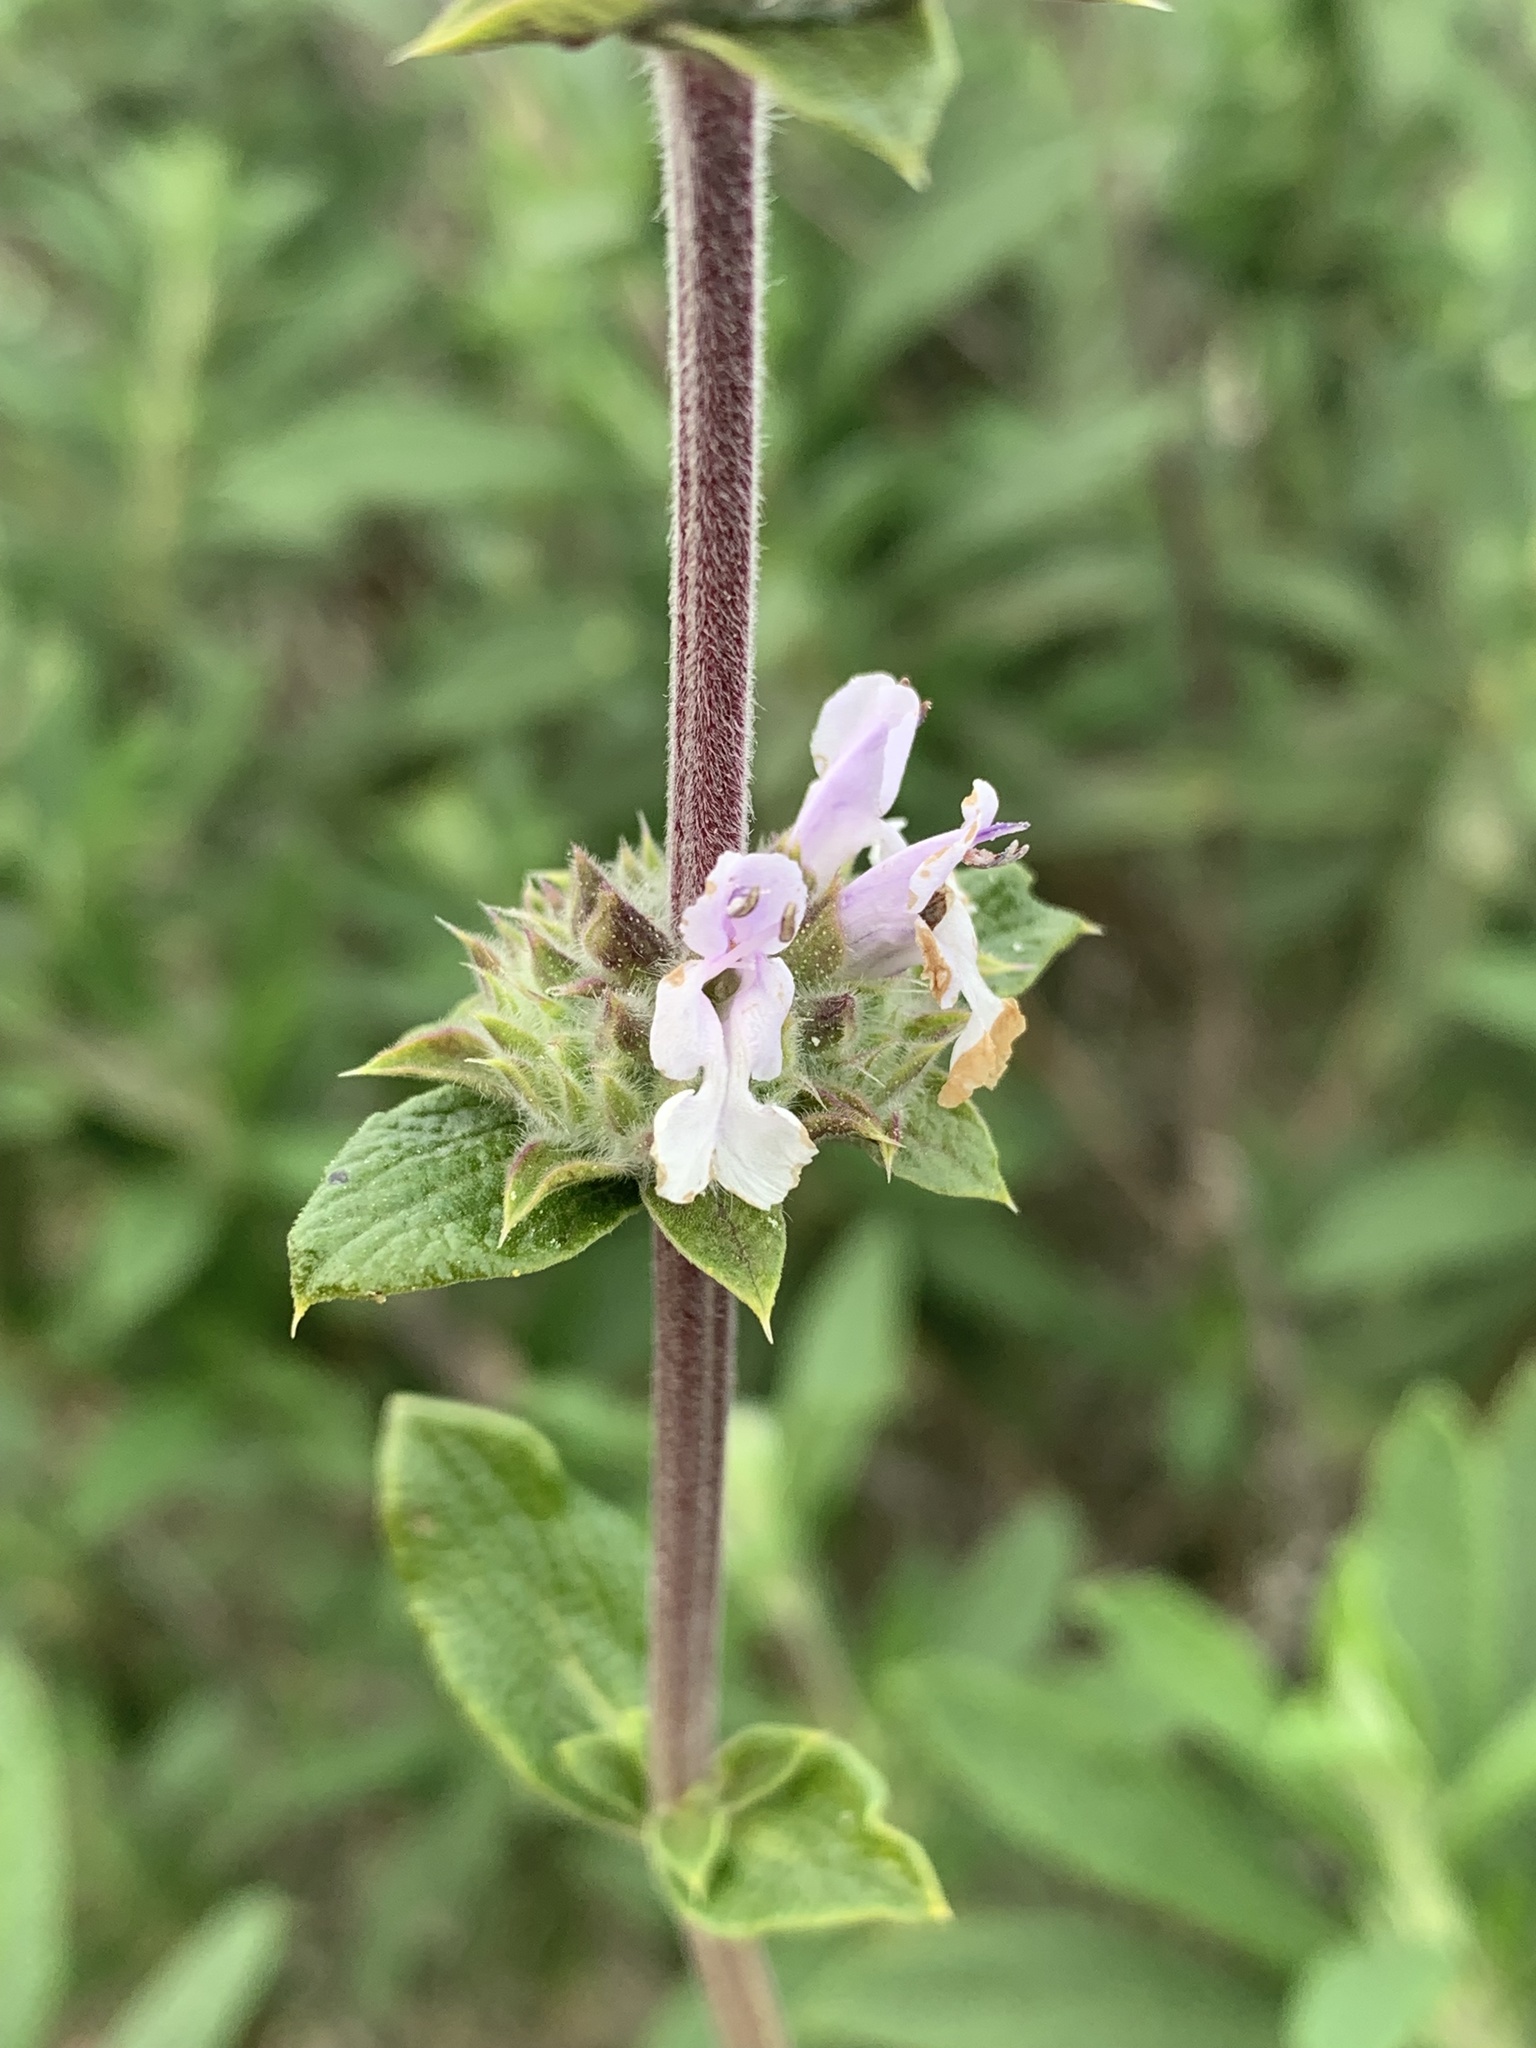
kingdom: Plantae
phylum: Tracheophyta
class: Magnoliopsida
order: Lamiales
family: Lamiaceae
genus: Salvia
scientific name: Salvia mellifera
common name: Black sage
